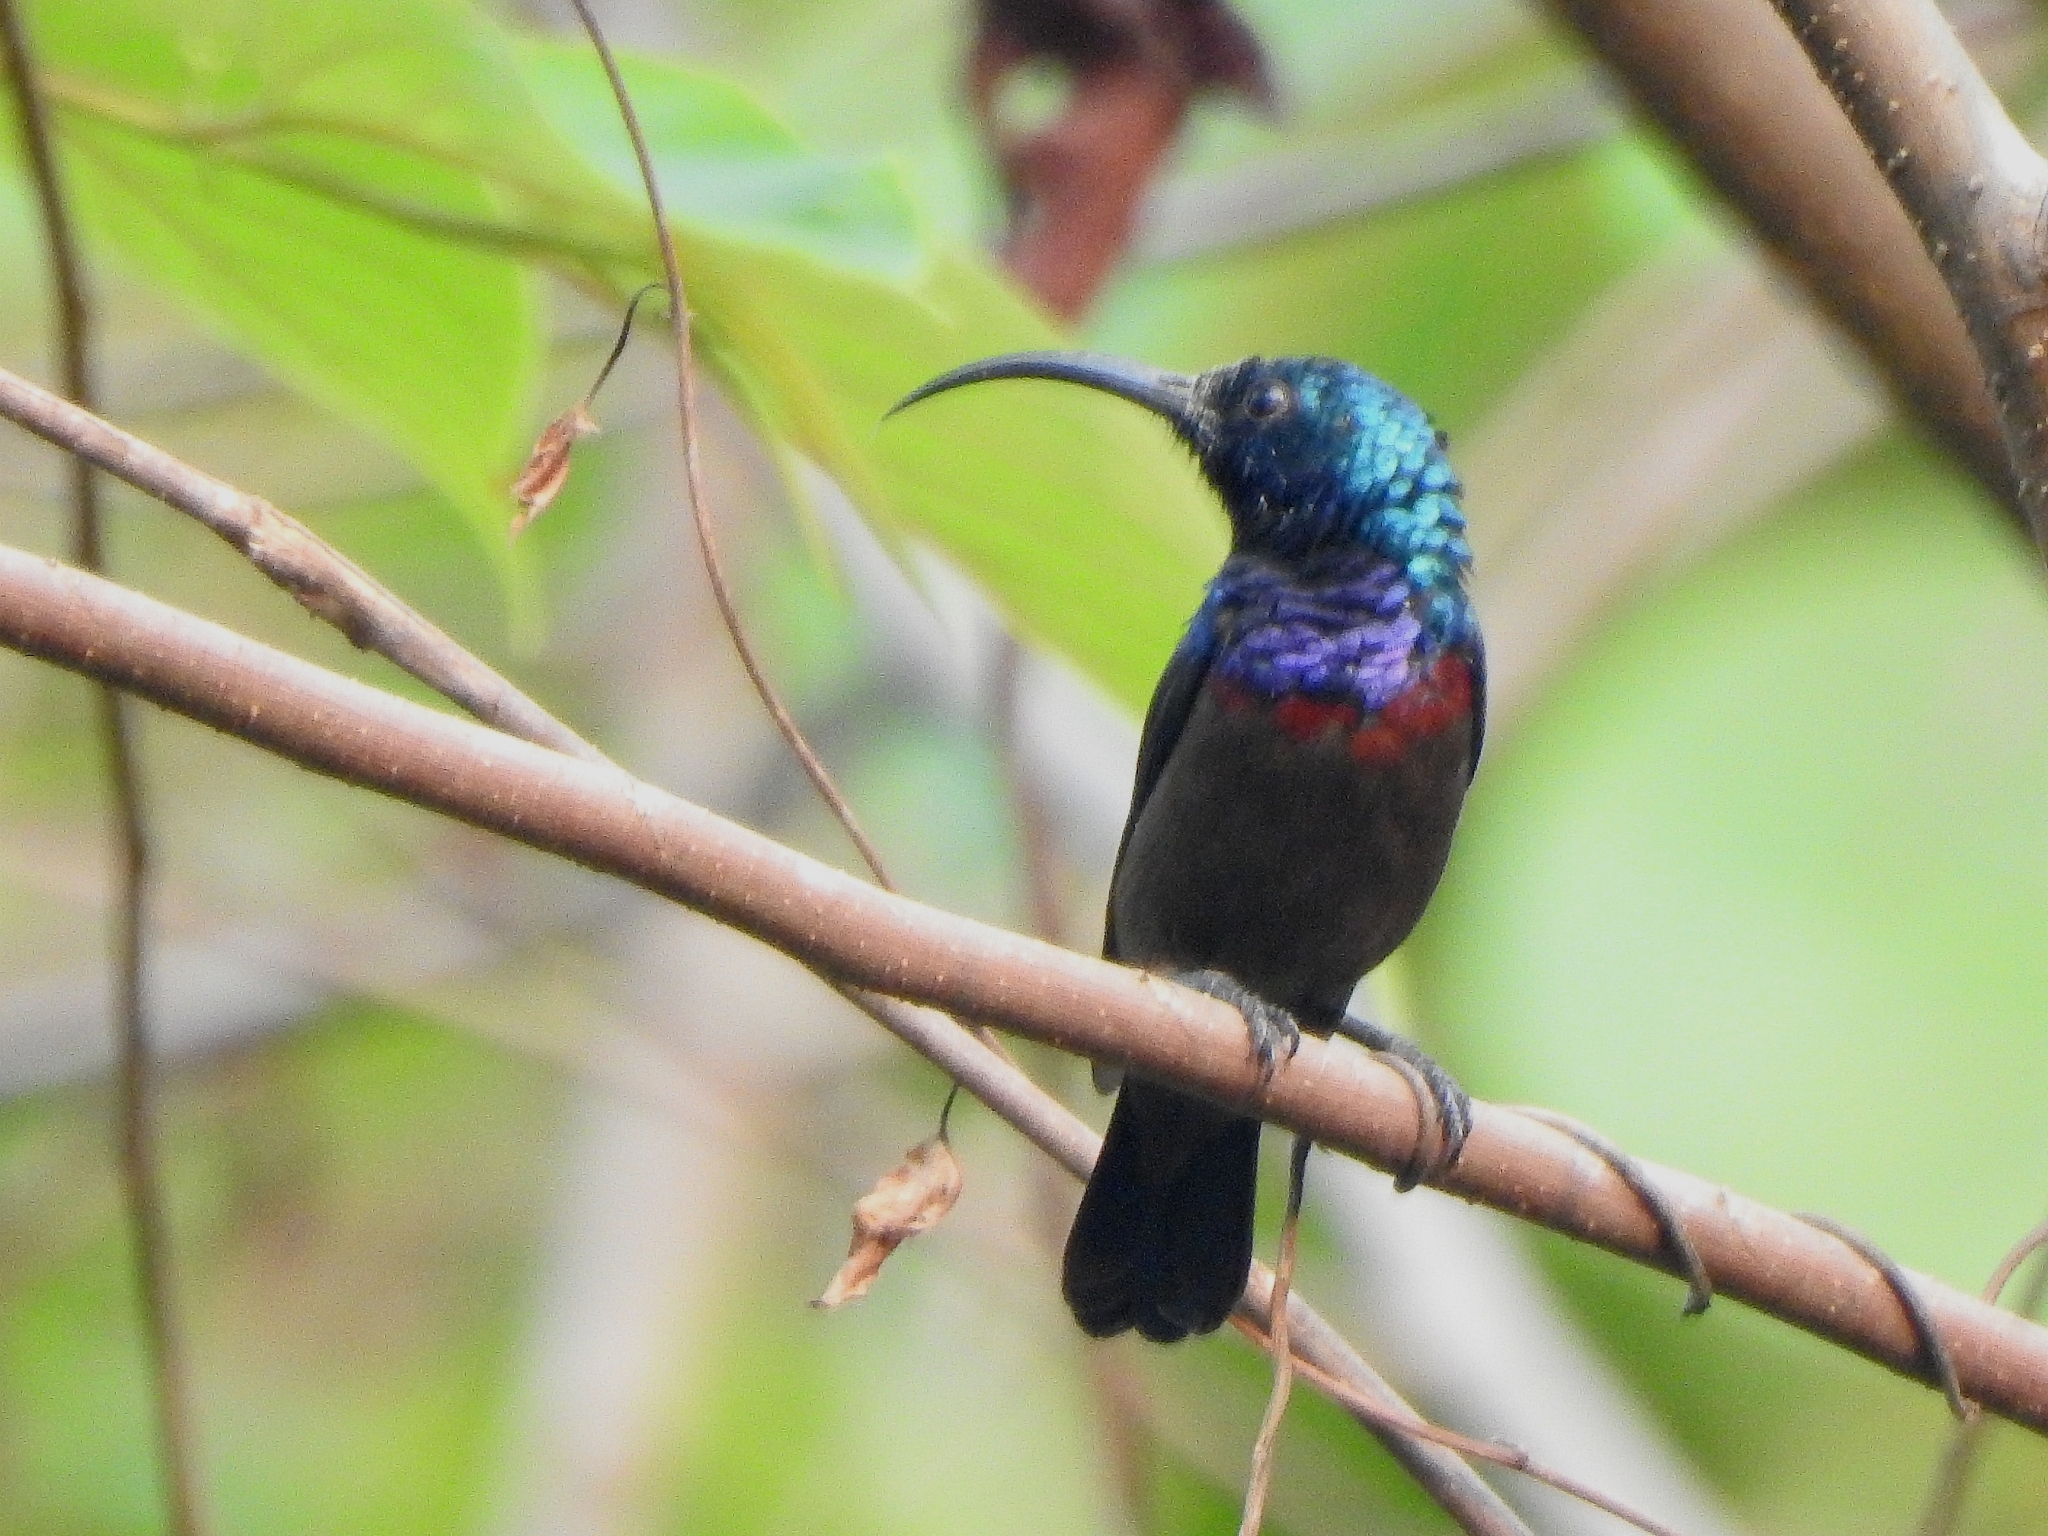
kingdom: Animalia
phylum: Chordata
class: Aves
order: Passeriformes
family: Nectariniidae
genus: Cinnyris
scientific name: Cinnyris lotenius
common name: Loten's sunbird
